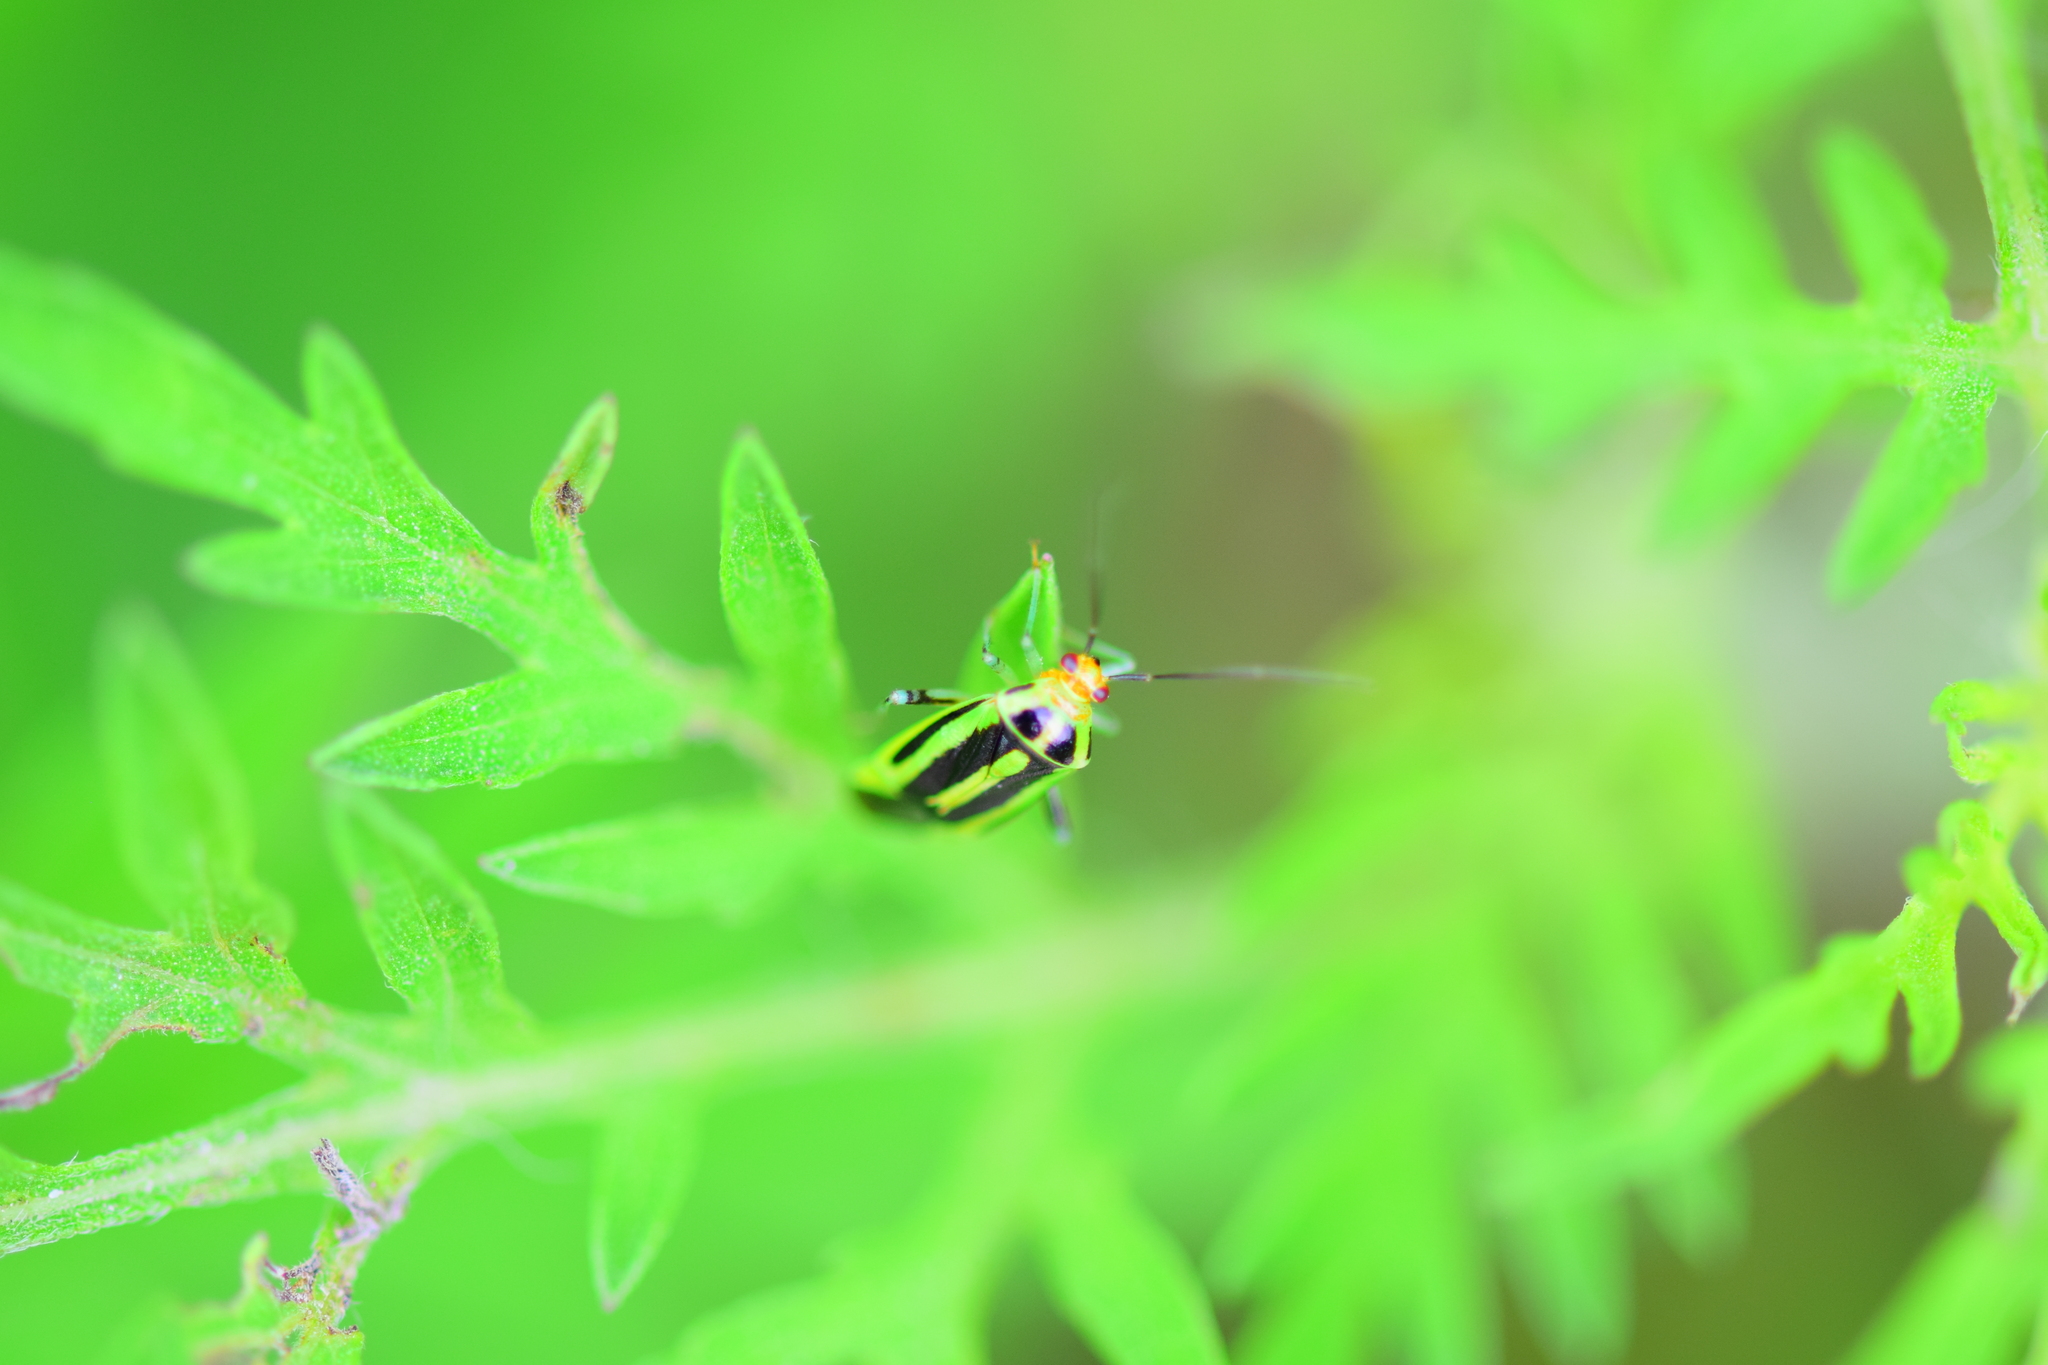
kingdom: Animalia
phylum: Arthropoda
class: Insecta
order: Hemiptera
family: Miridae
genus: Poecilocapsus
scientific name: Poecilocapsus lineatus
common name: Four-lined plant bug
